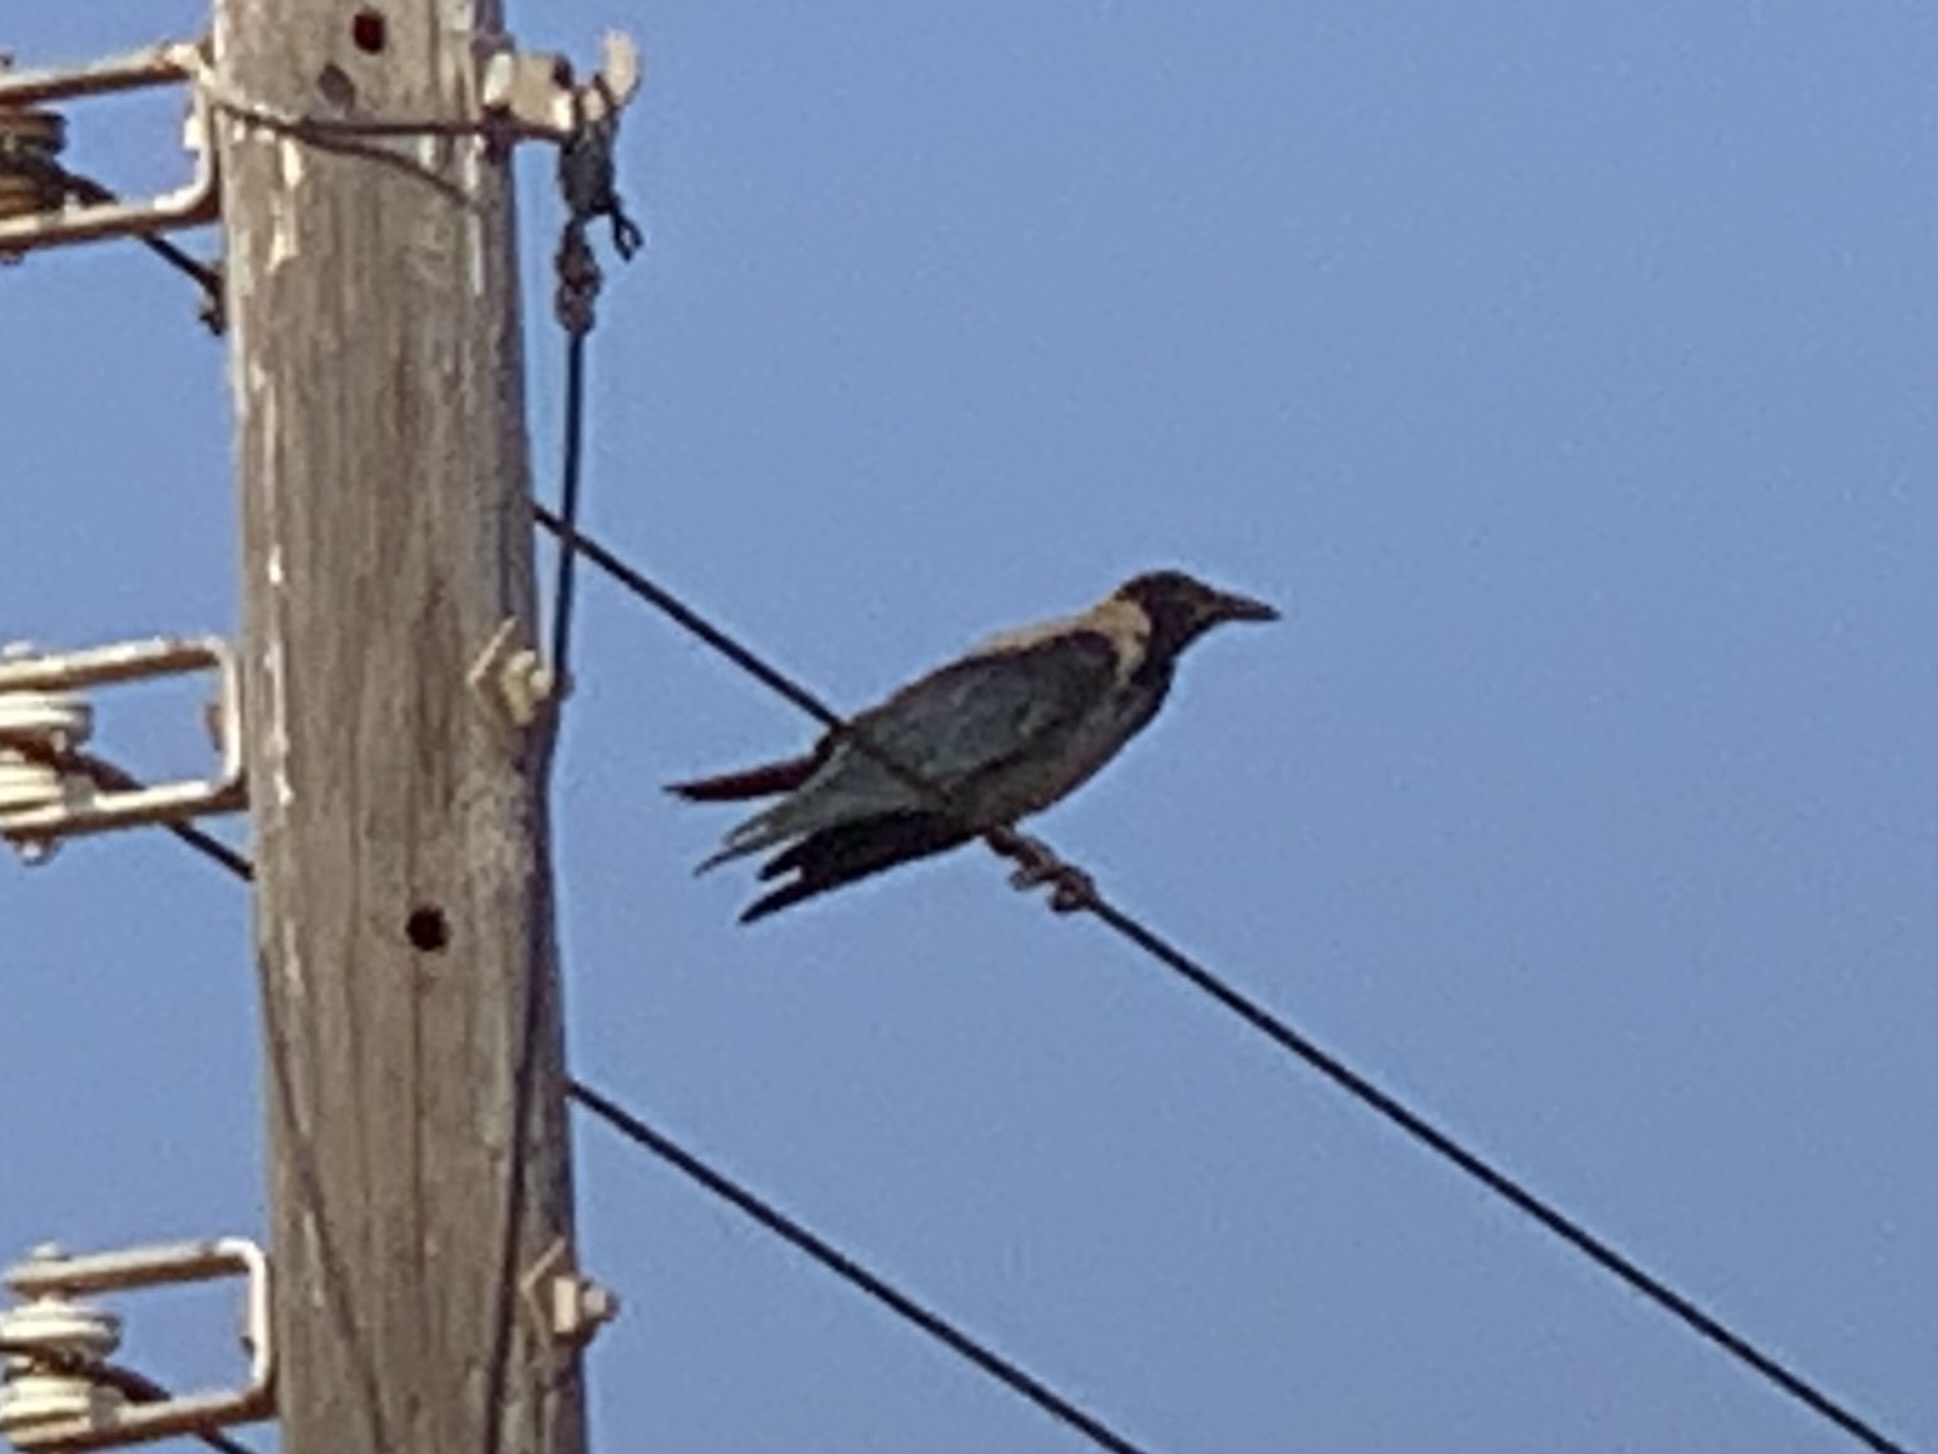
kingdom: Animalia
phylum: Chordata
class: Aves
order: Passeriformes
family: Corvidae
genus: Corvus
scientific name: Corvus cornix
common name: Hooded crow
